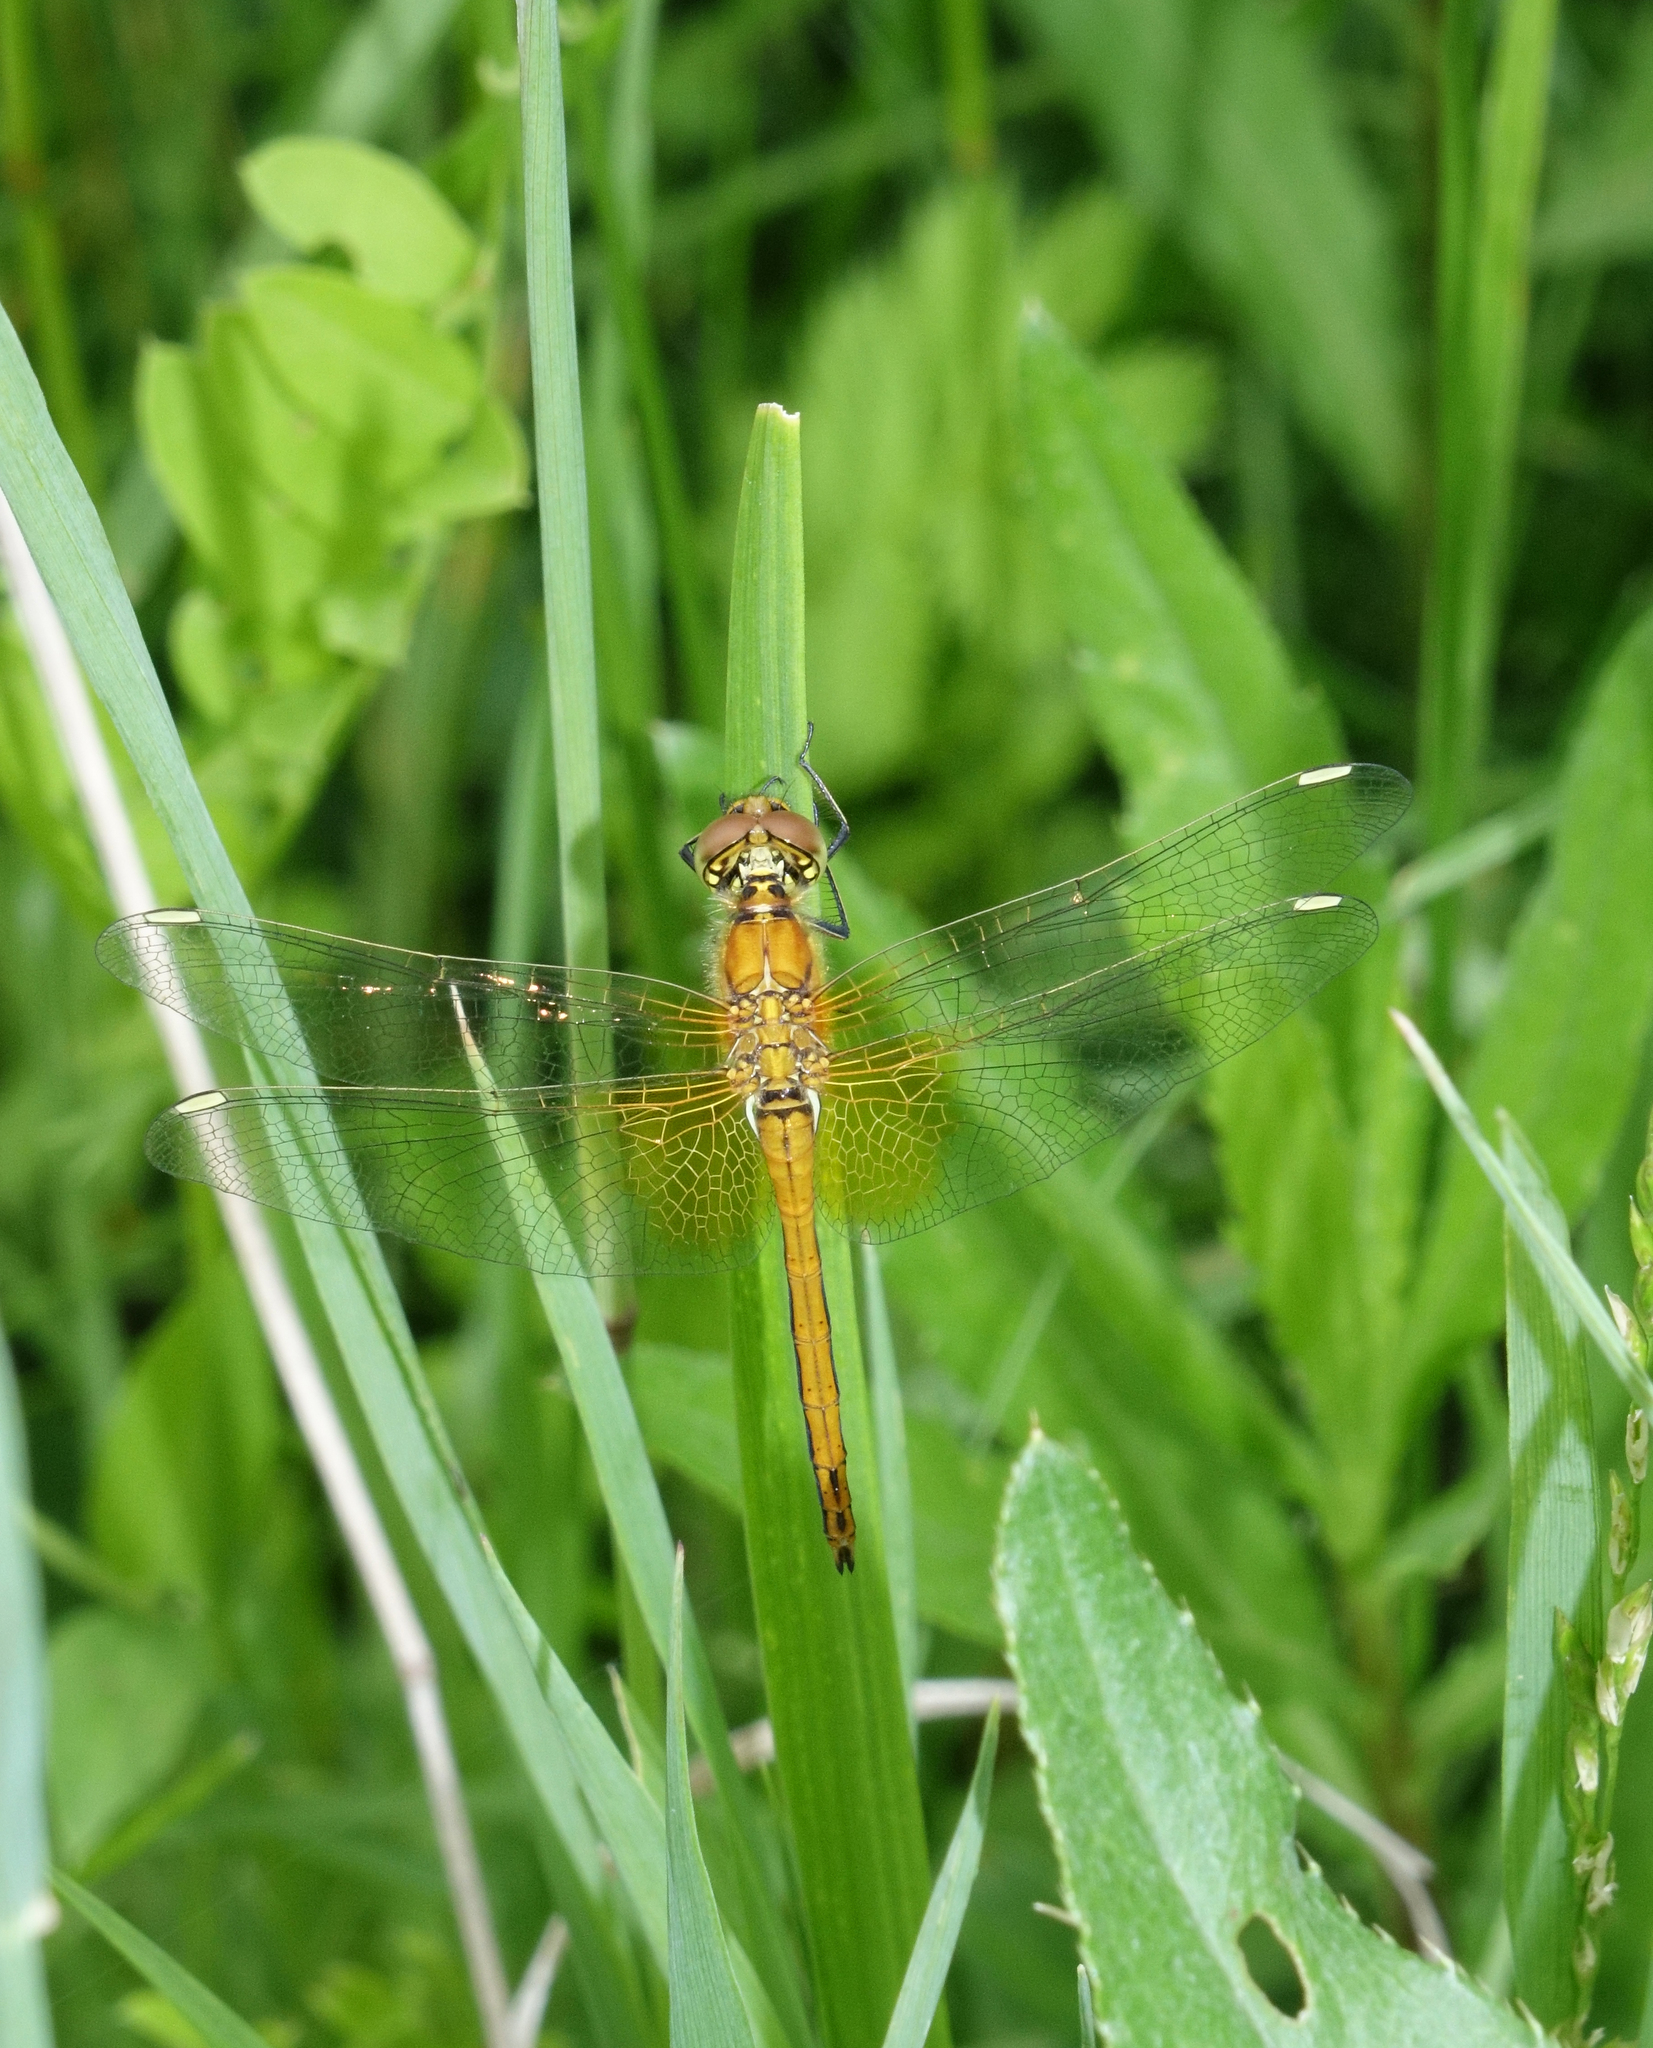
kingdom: Animalia
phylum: Arthropoda
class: Insecta
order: Odonata
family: Libellulidae
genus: Sympetrum
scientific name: Sympetrum flaveolum
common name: Yellow-winged darter
